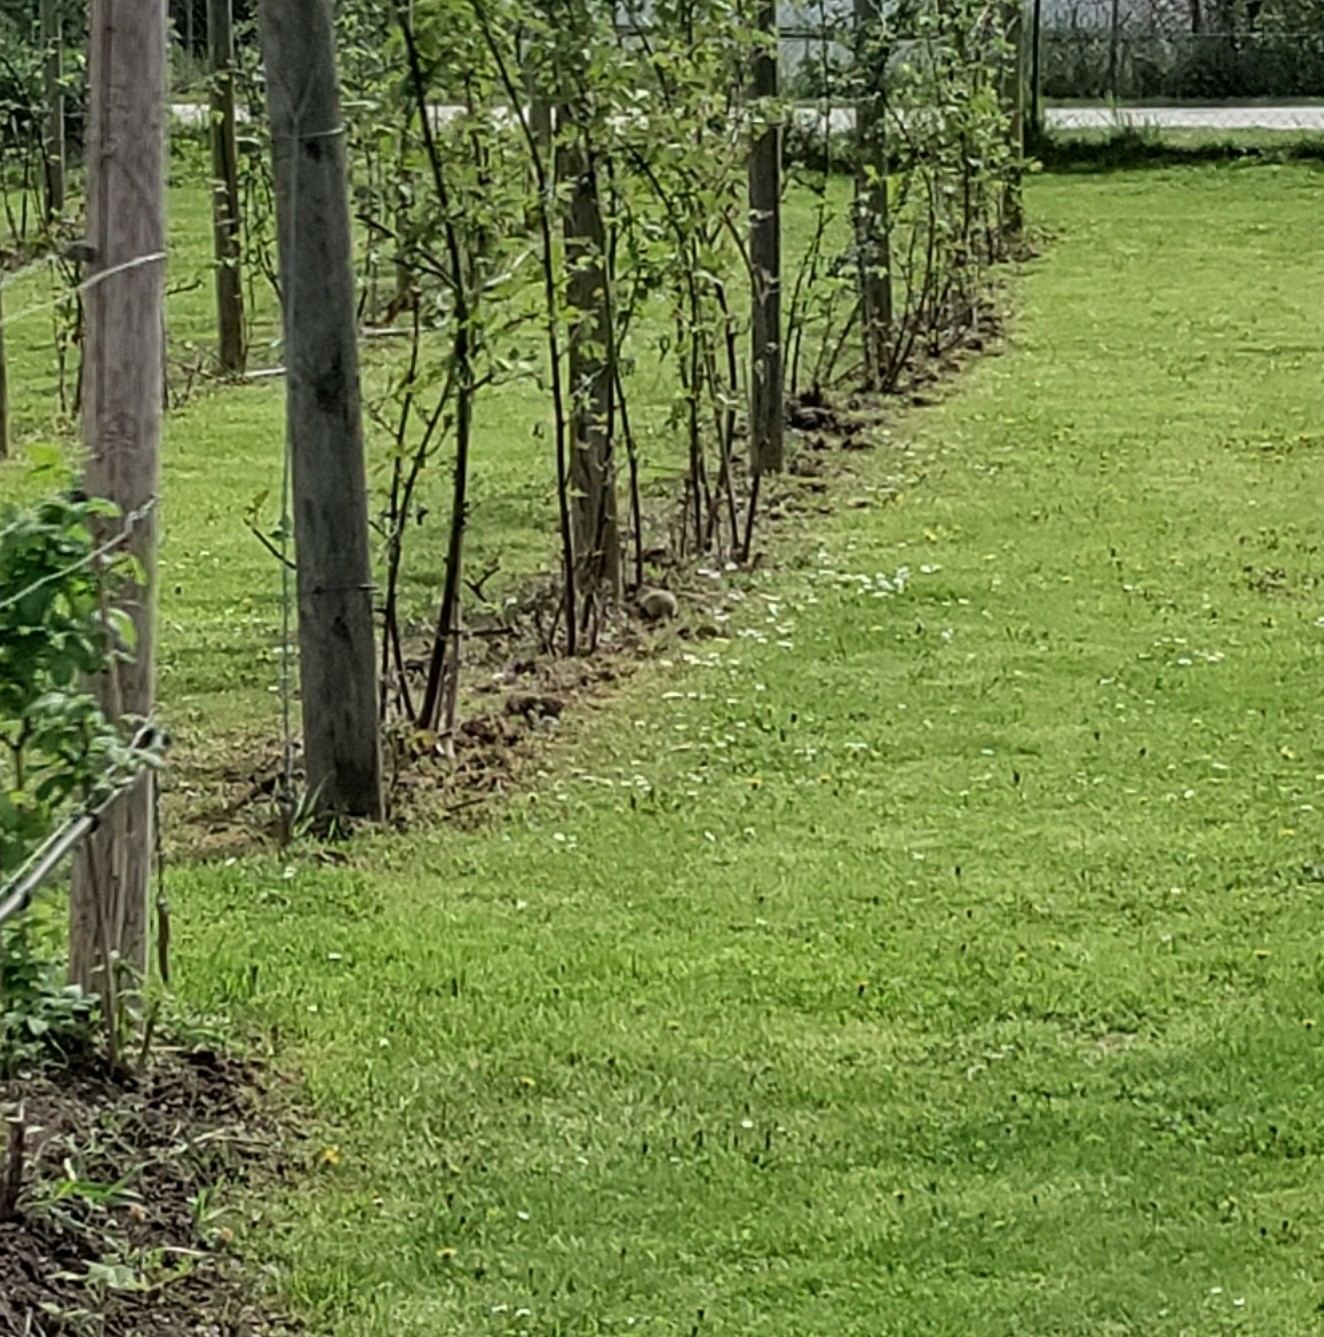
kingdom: Animalia
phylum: Chordata
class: Mammalia
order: Rodentia
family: Sciuridae
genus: Spermophilus
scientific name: Spermophilus citellus
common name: European ground squirrel
